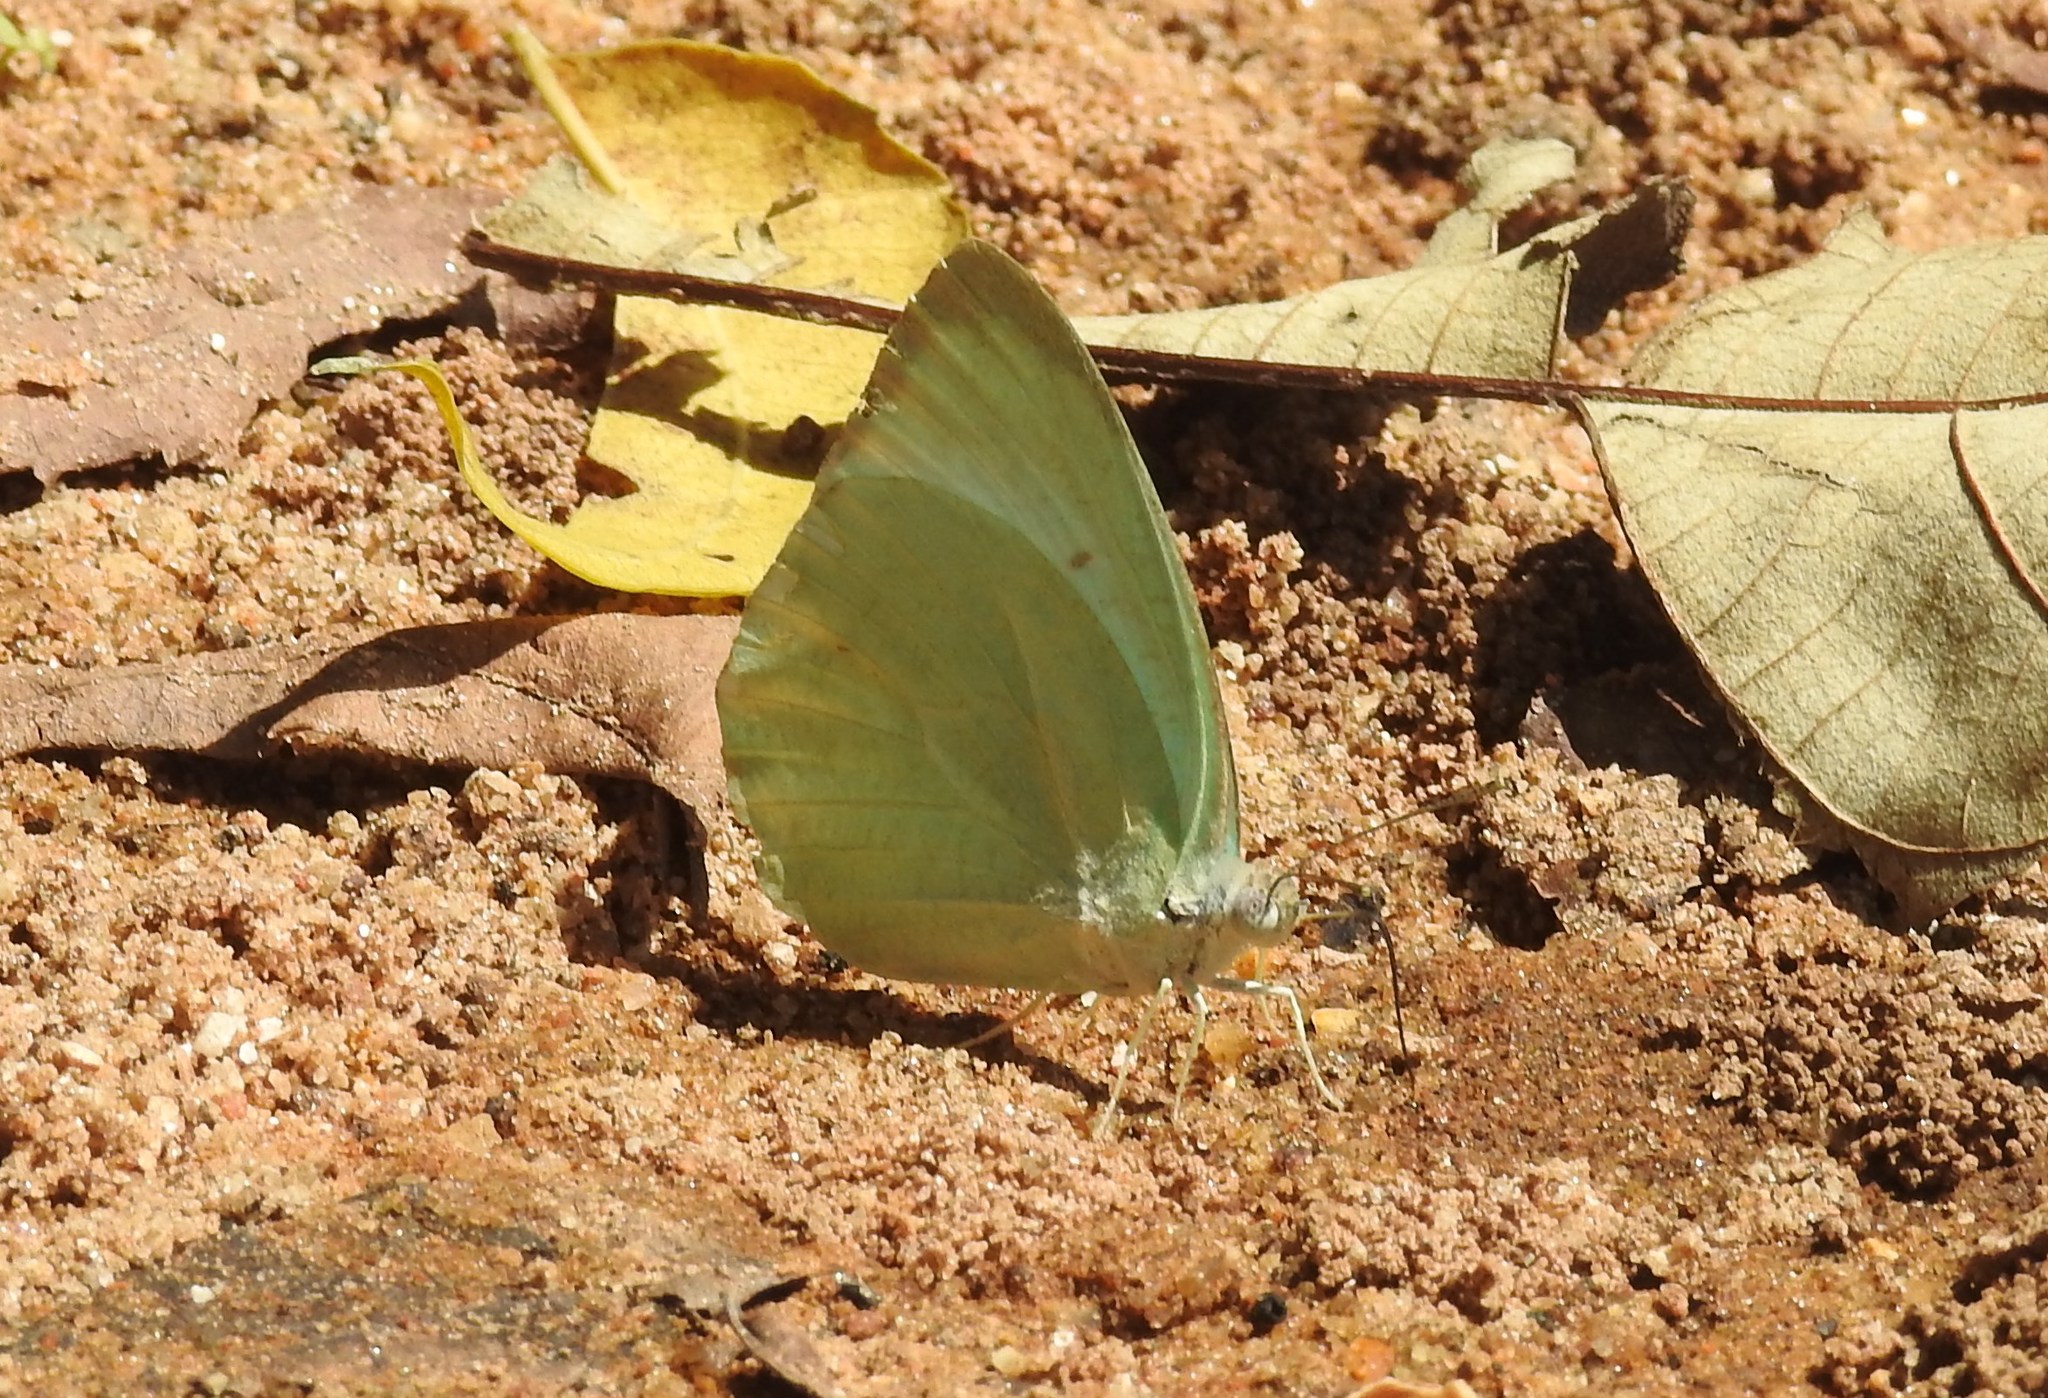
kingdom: Animalia
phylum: Arthropoda
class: Insecta
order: Lepidoptera
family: Pieridae
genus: Catopsilia
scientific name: Catopsilia pyranthe
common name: Mottled emigrant
